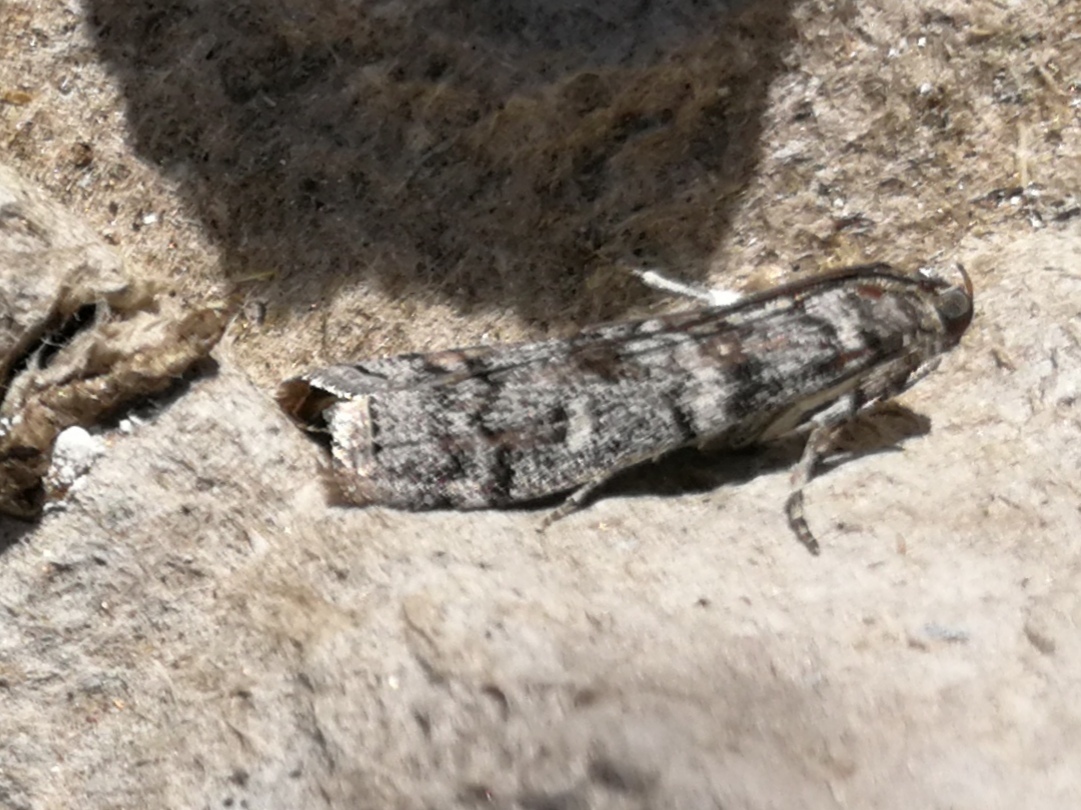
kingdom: Animalia
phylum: Arthropoda
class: Insecta
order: Lepidoptera
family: Pyralidae
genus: Dioryctria
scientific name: Dioryctria mendacella
